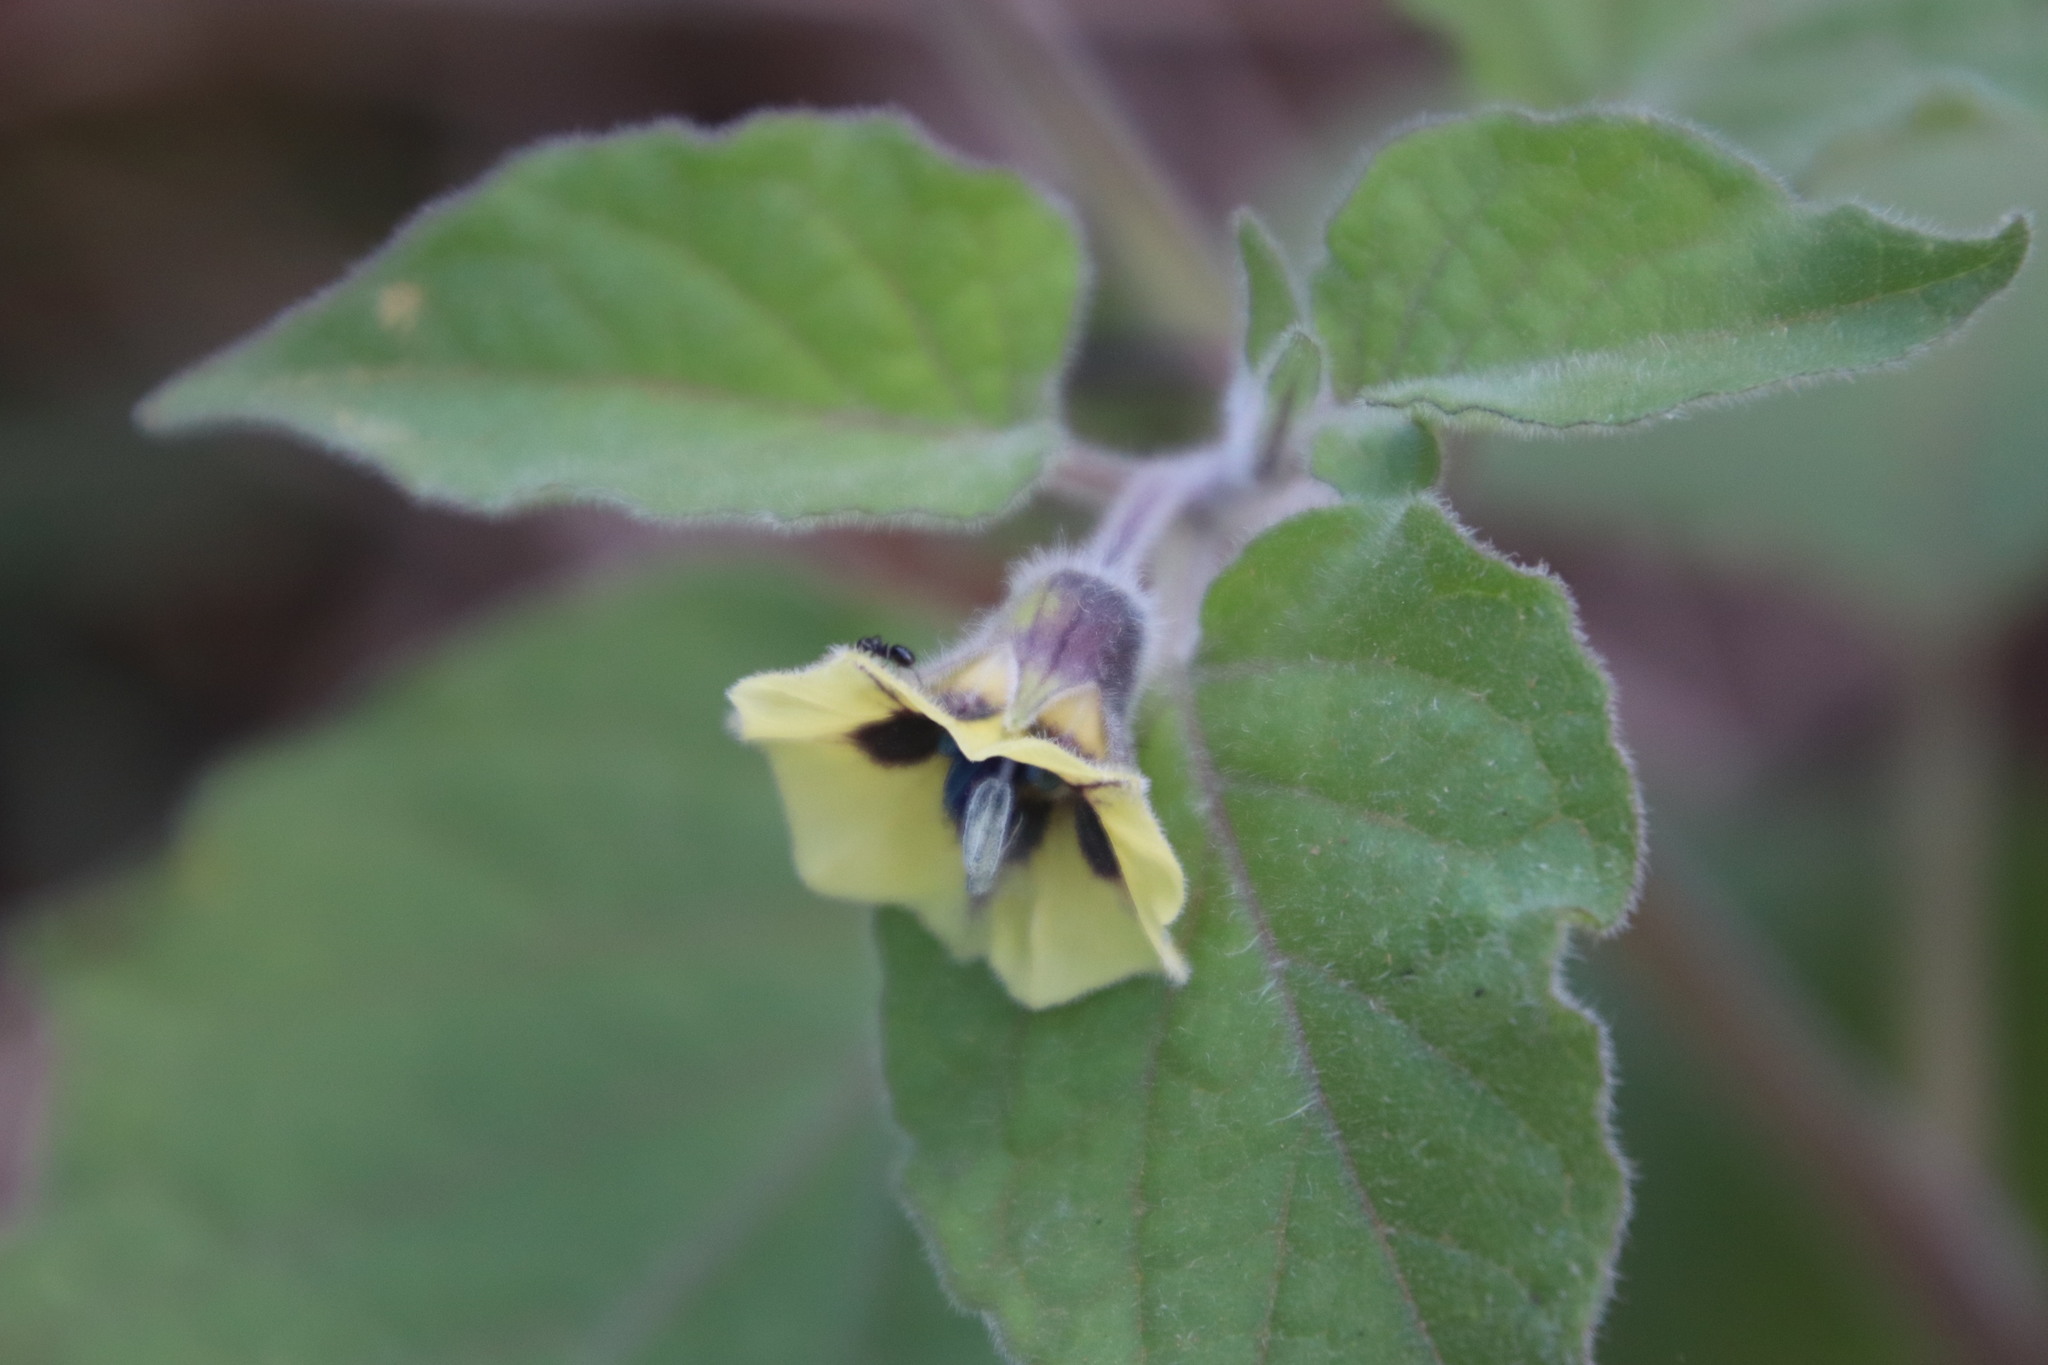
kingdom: Plantae
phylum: Tracheophyta
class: Magnoliopsida
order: Solanales
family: Solanaceae
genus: Physalis
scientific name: Physalis peruviana
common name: Cape-gooseberry
